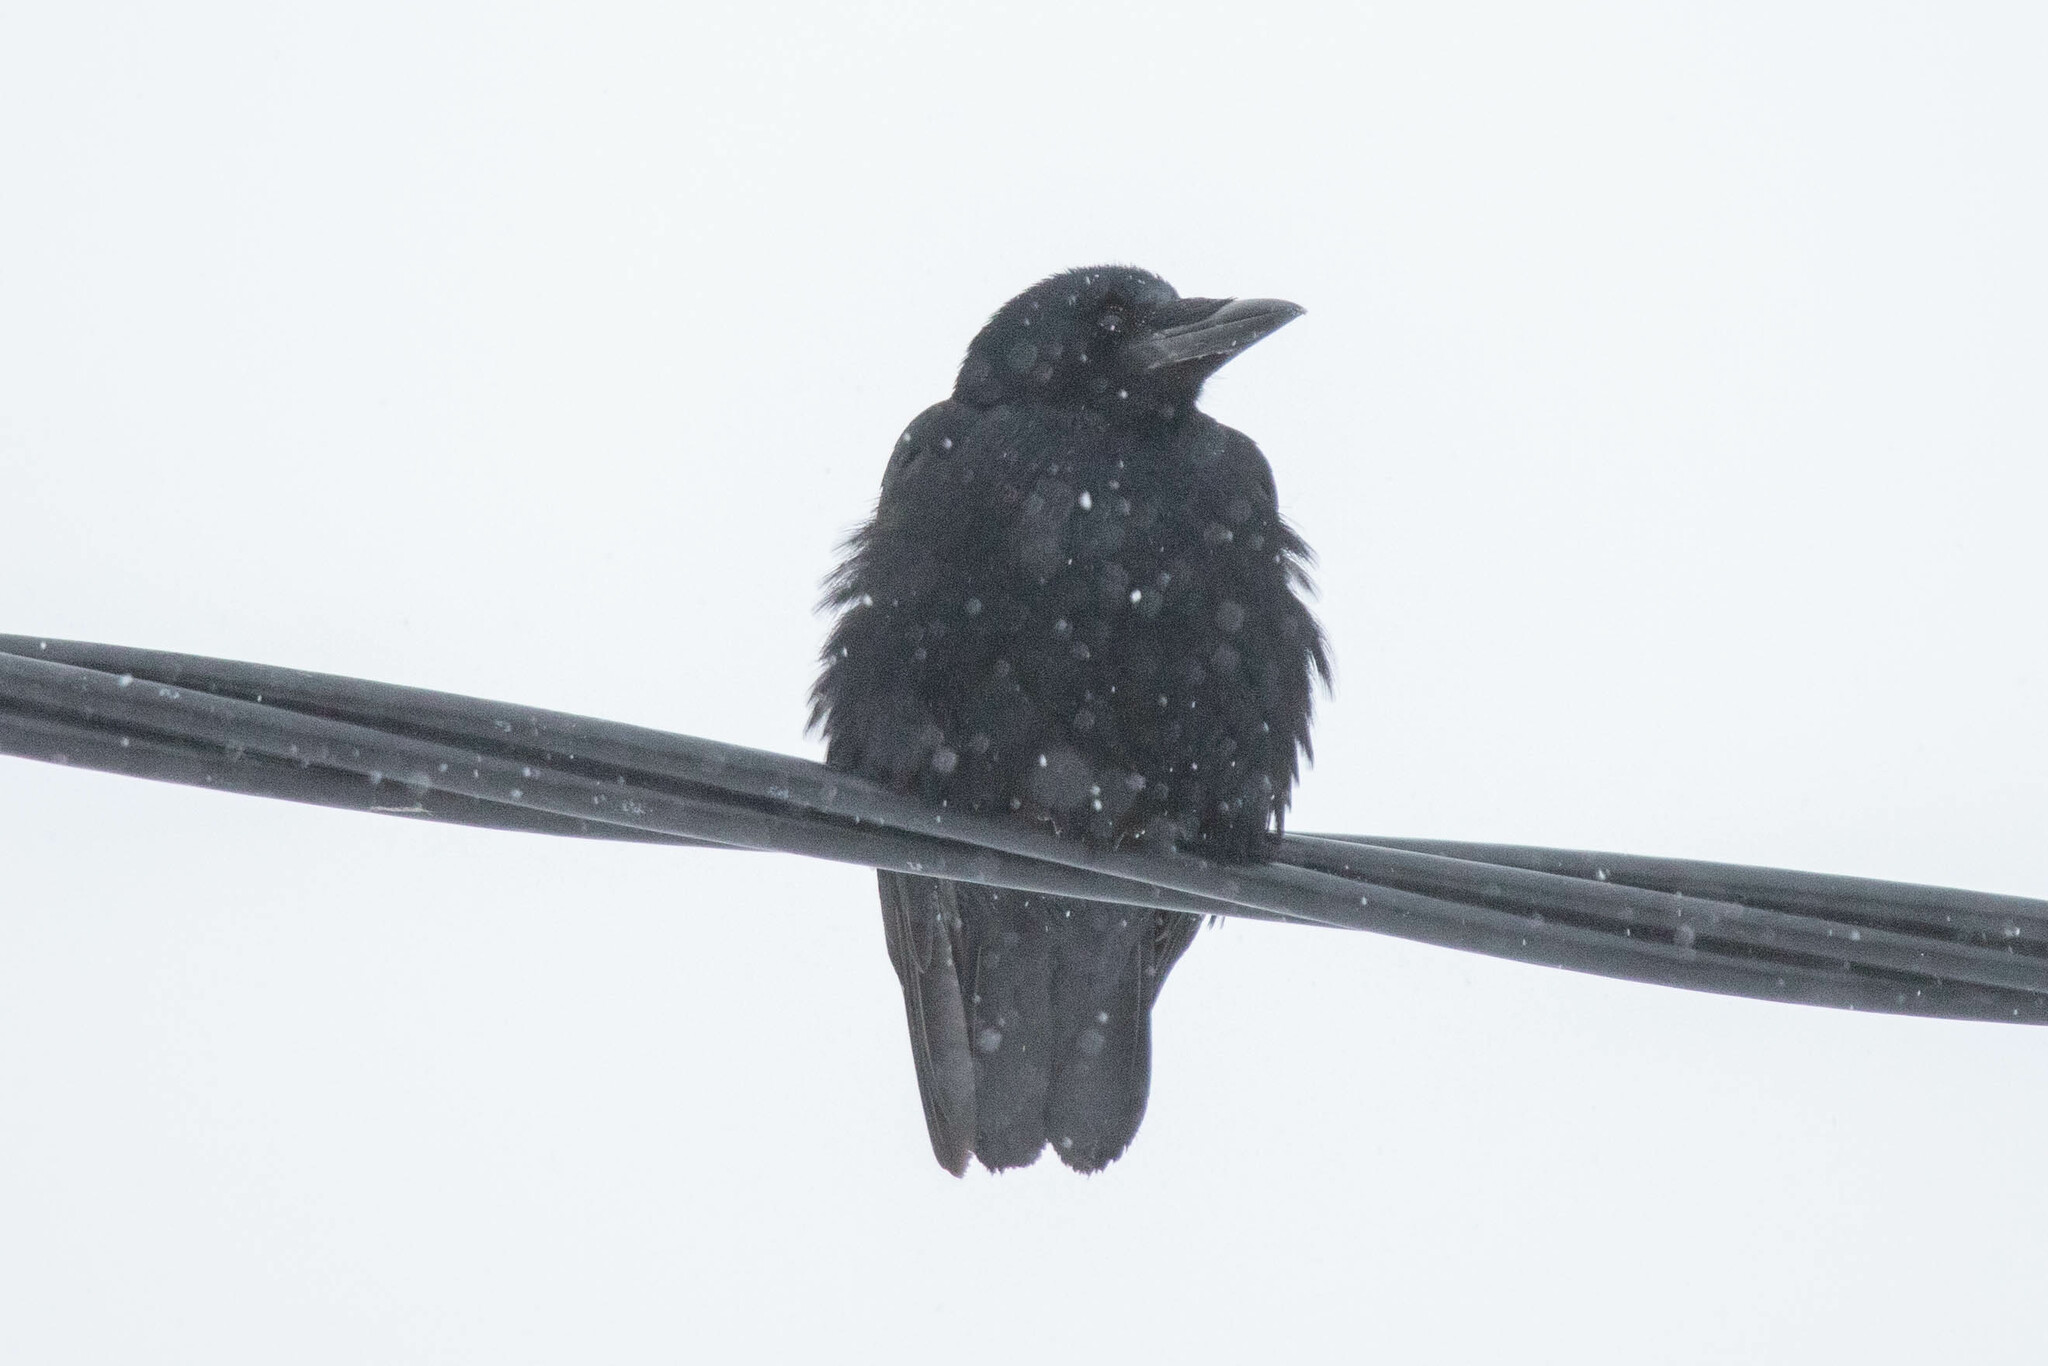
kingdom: Animalia
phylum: Chordata
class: Aves
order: Passeriformes
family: Corvidae
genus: Corvus
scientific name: Corvus frugilegus
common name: Rook
